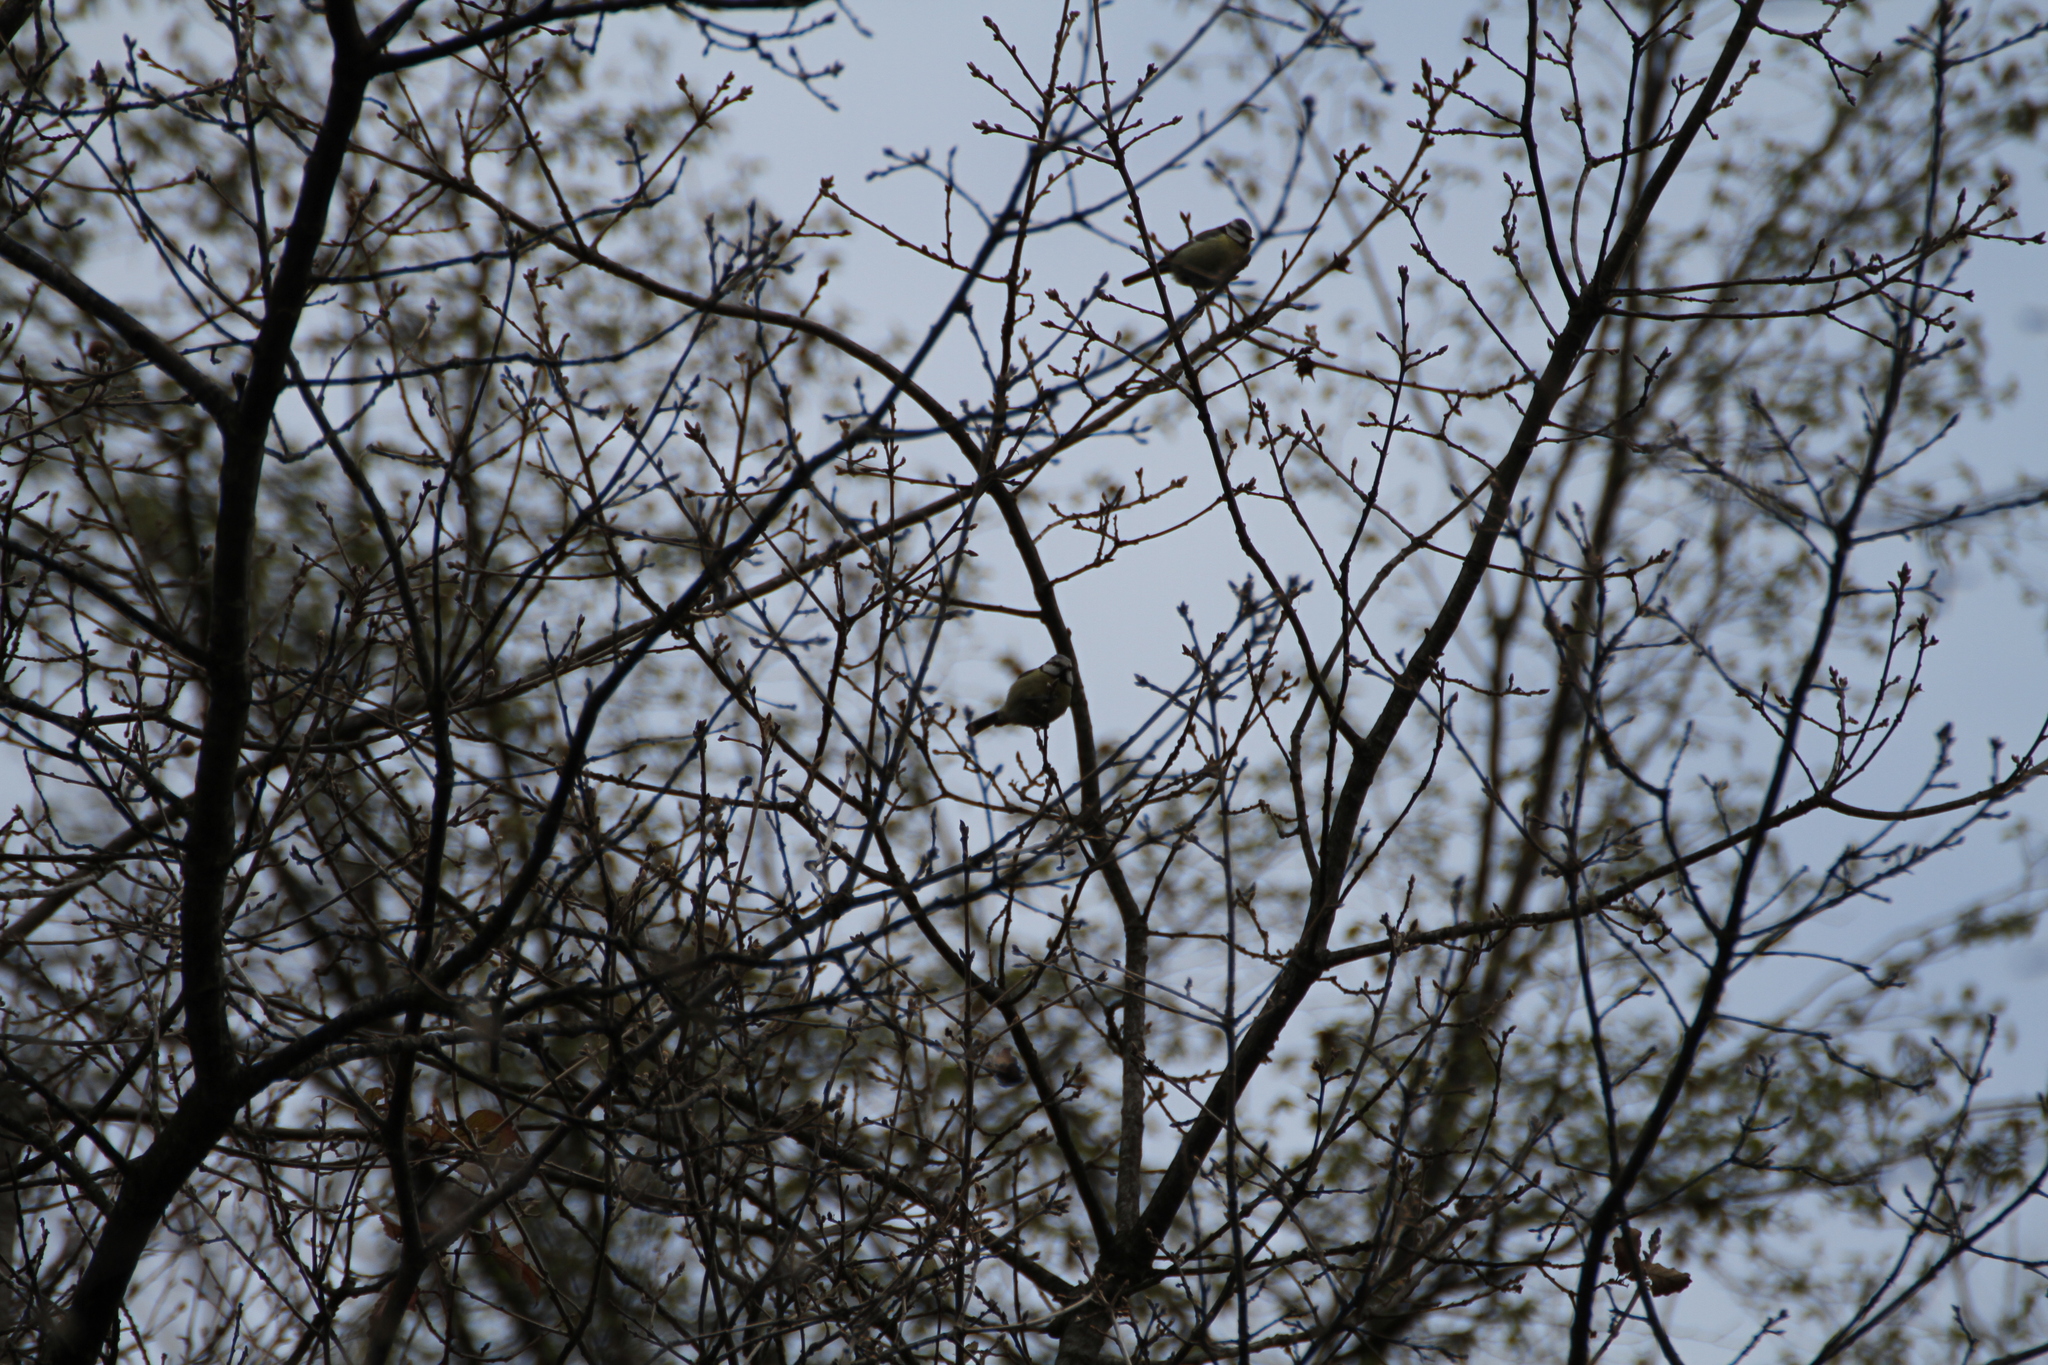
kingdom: Animalia
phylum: Chordata
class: Aves
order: Passeriformes
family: Paridae
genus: Cyanistes
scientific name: Cyanistes caeruleus
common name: Eurasian blue tit
